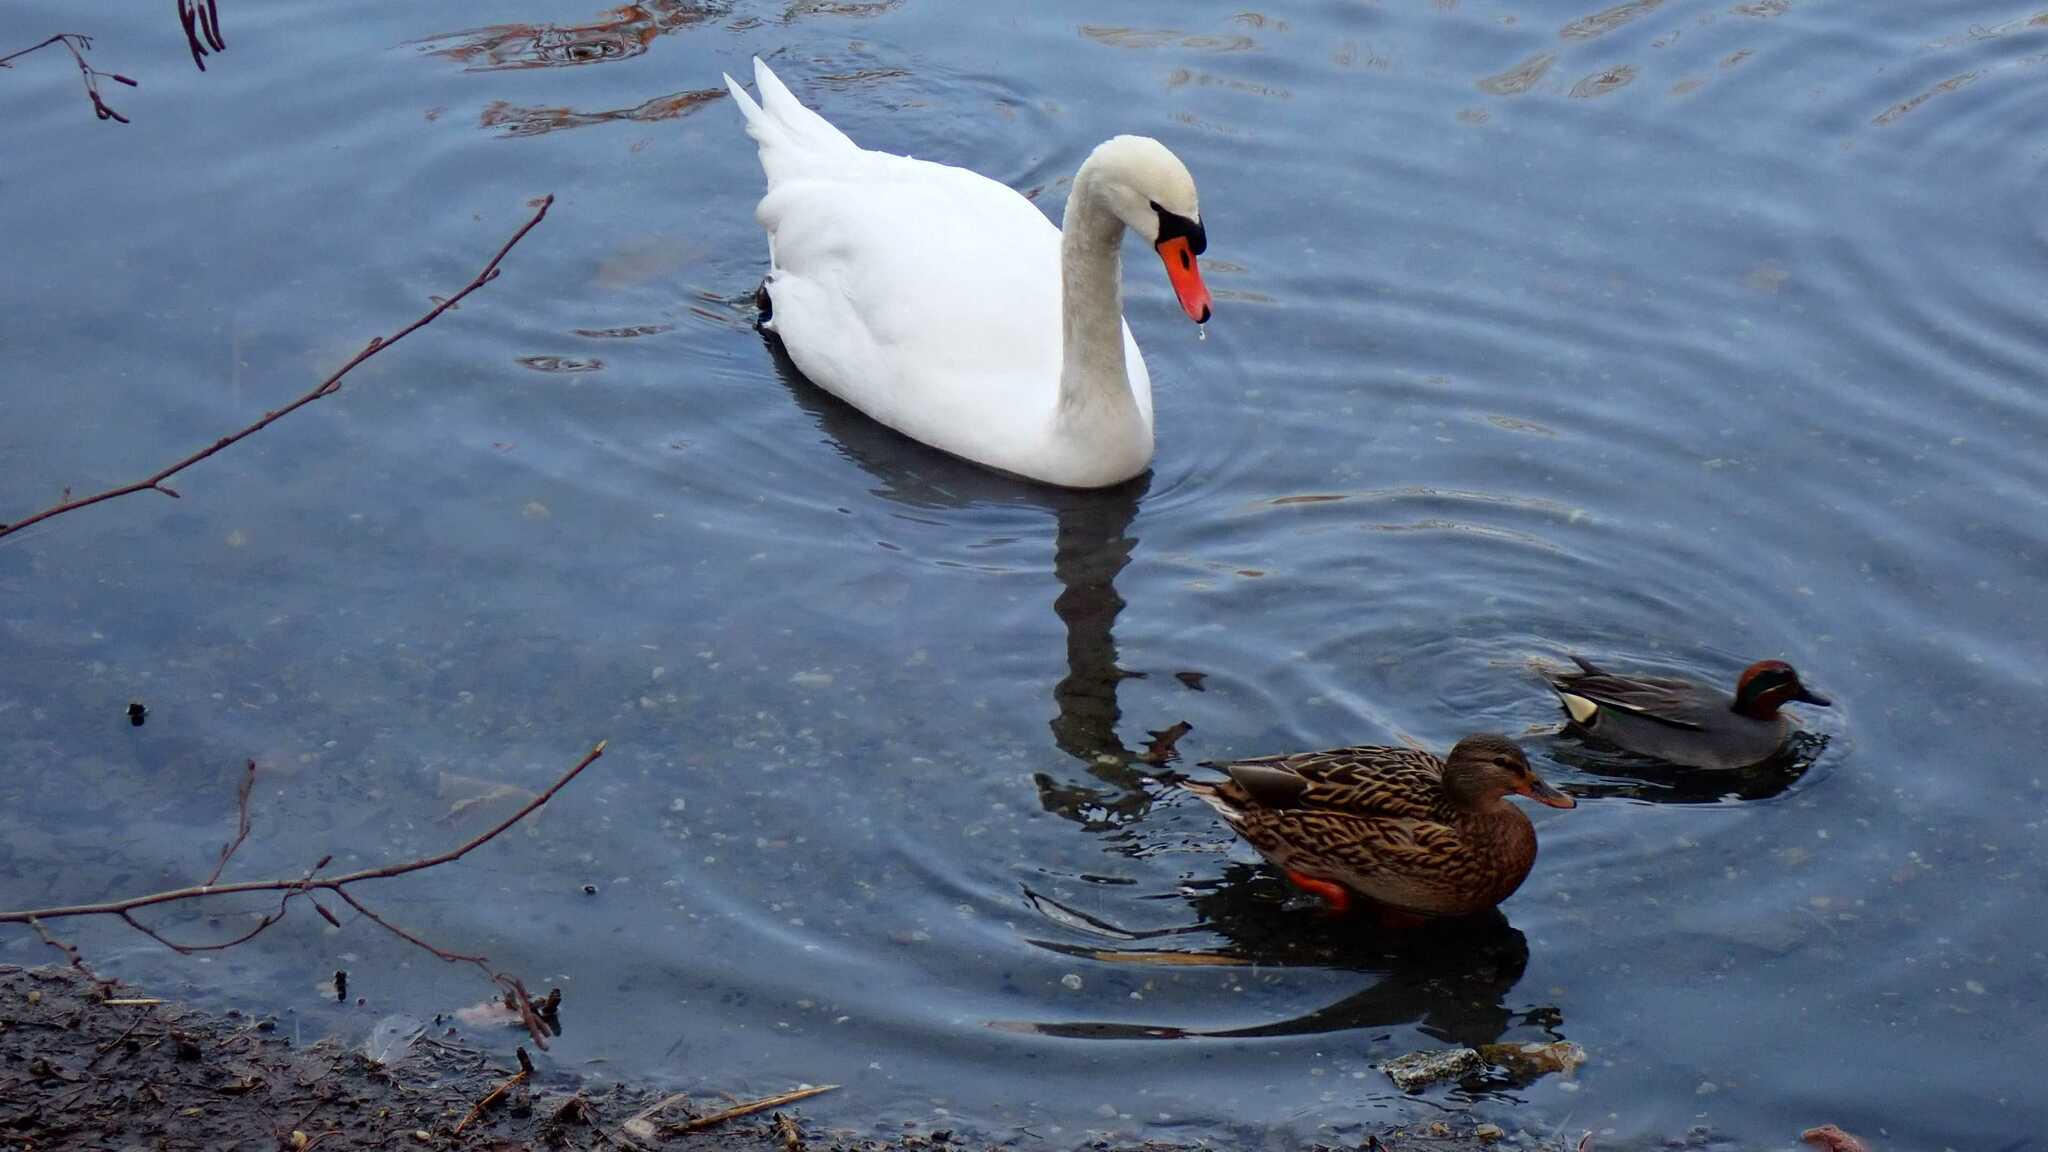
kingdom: Animalia
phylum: Chordata
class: Aves
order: Anseriformes
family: Anatidae
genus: Anas
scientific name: Anas crecca
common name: Eurasian teal
